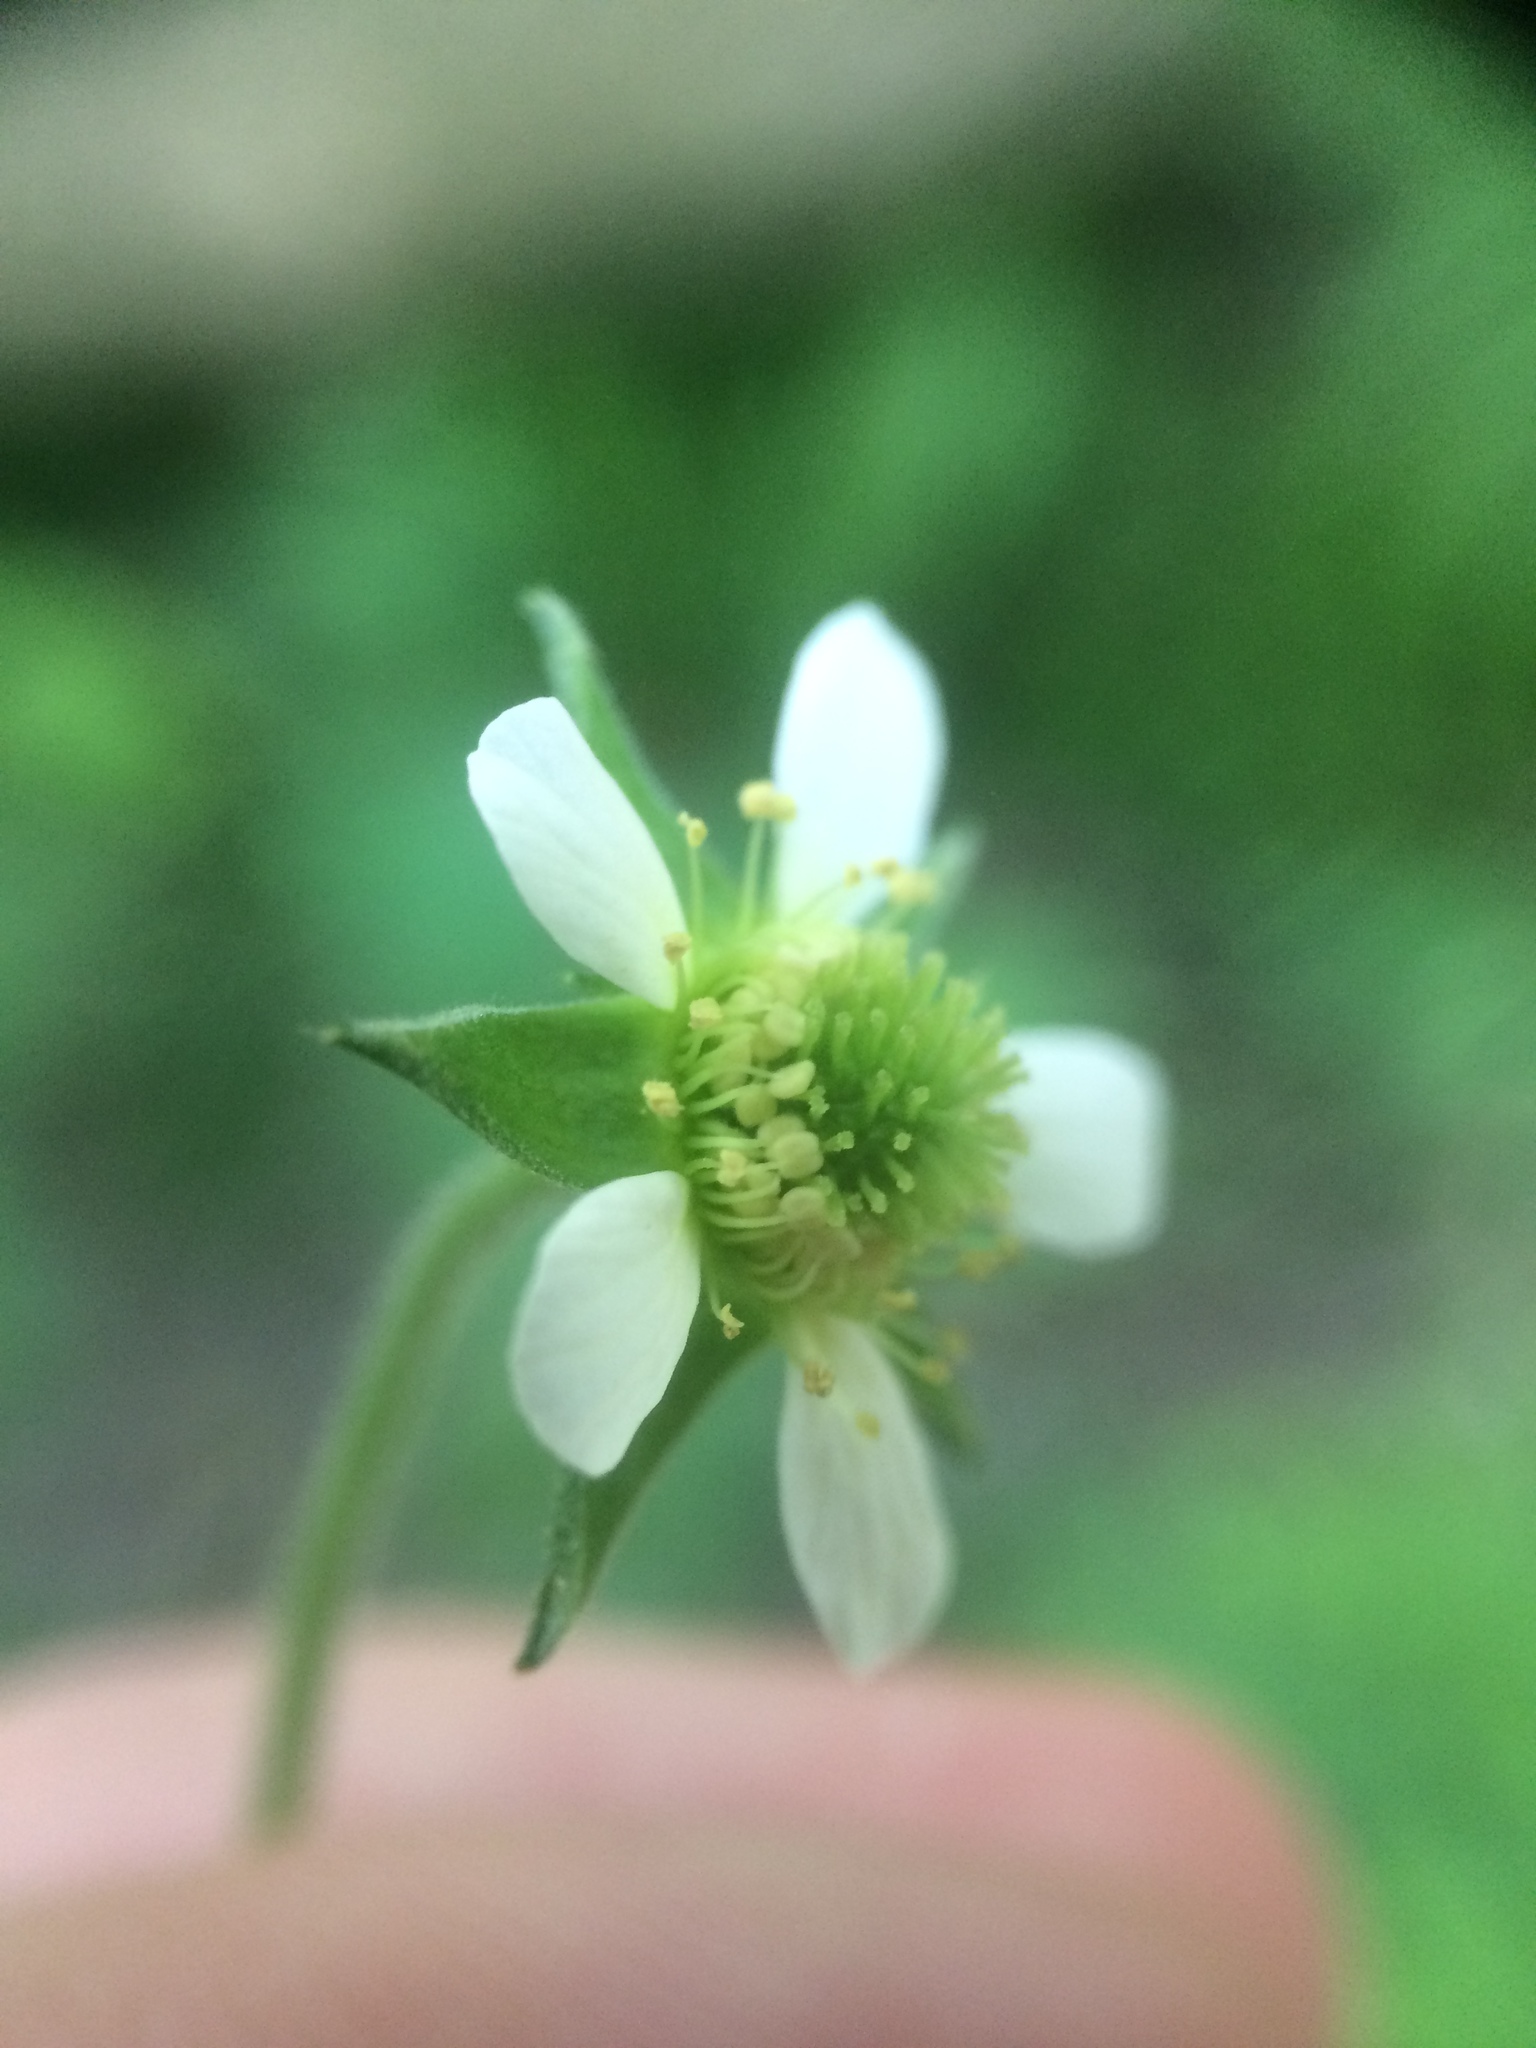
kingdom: Plantae
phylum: Tracheophyta
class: Magnoliopsida
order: Rosales
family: Rosaceae
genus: Geum
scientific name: Geum canadense
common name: White avens
